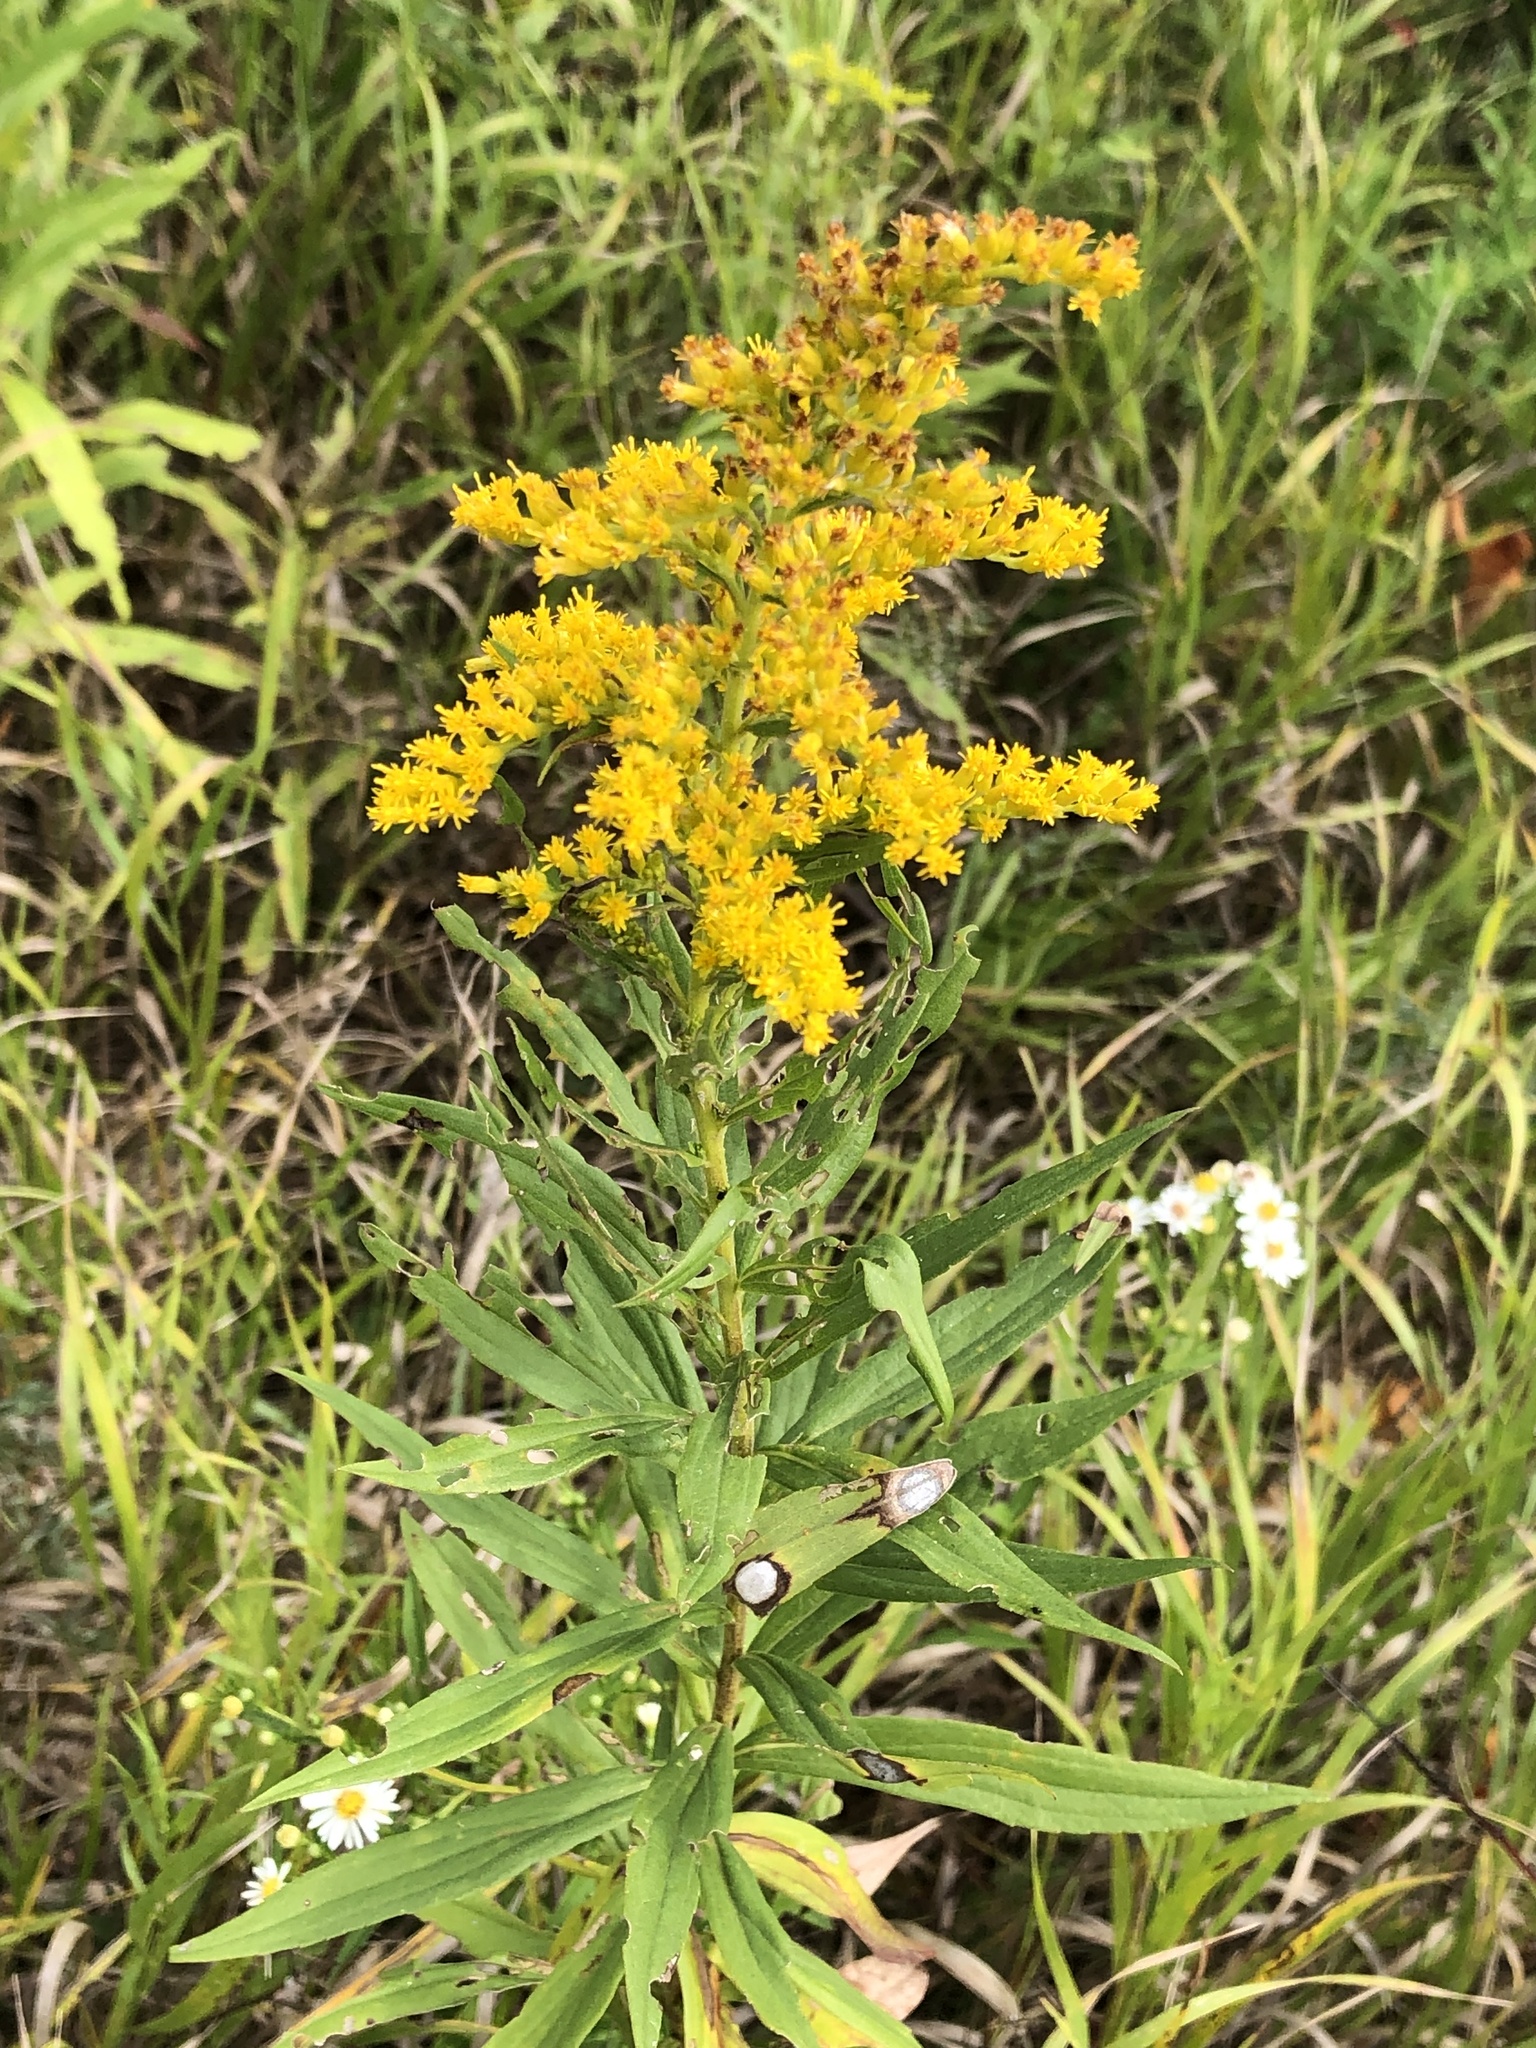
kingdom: Plantae
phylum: Tracheophyta
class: Magnoliopsida
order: Asterales
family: Asteraceae
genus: Solidago
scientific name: Solidago altissima
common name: Late goldenrod
